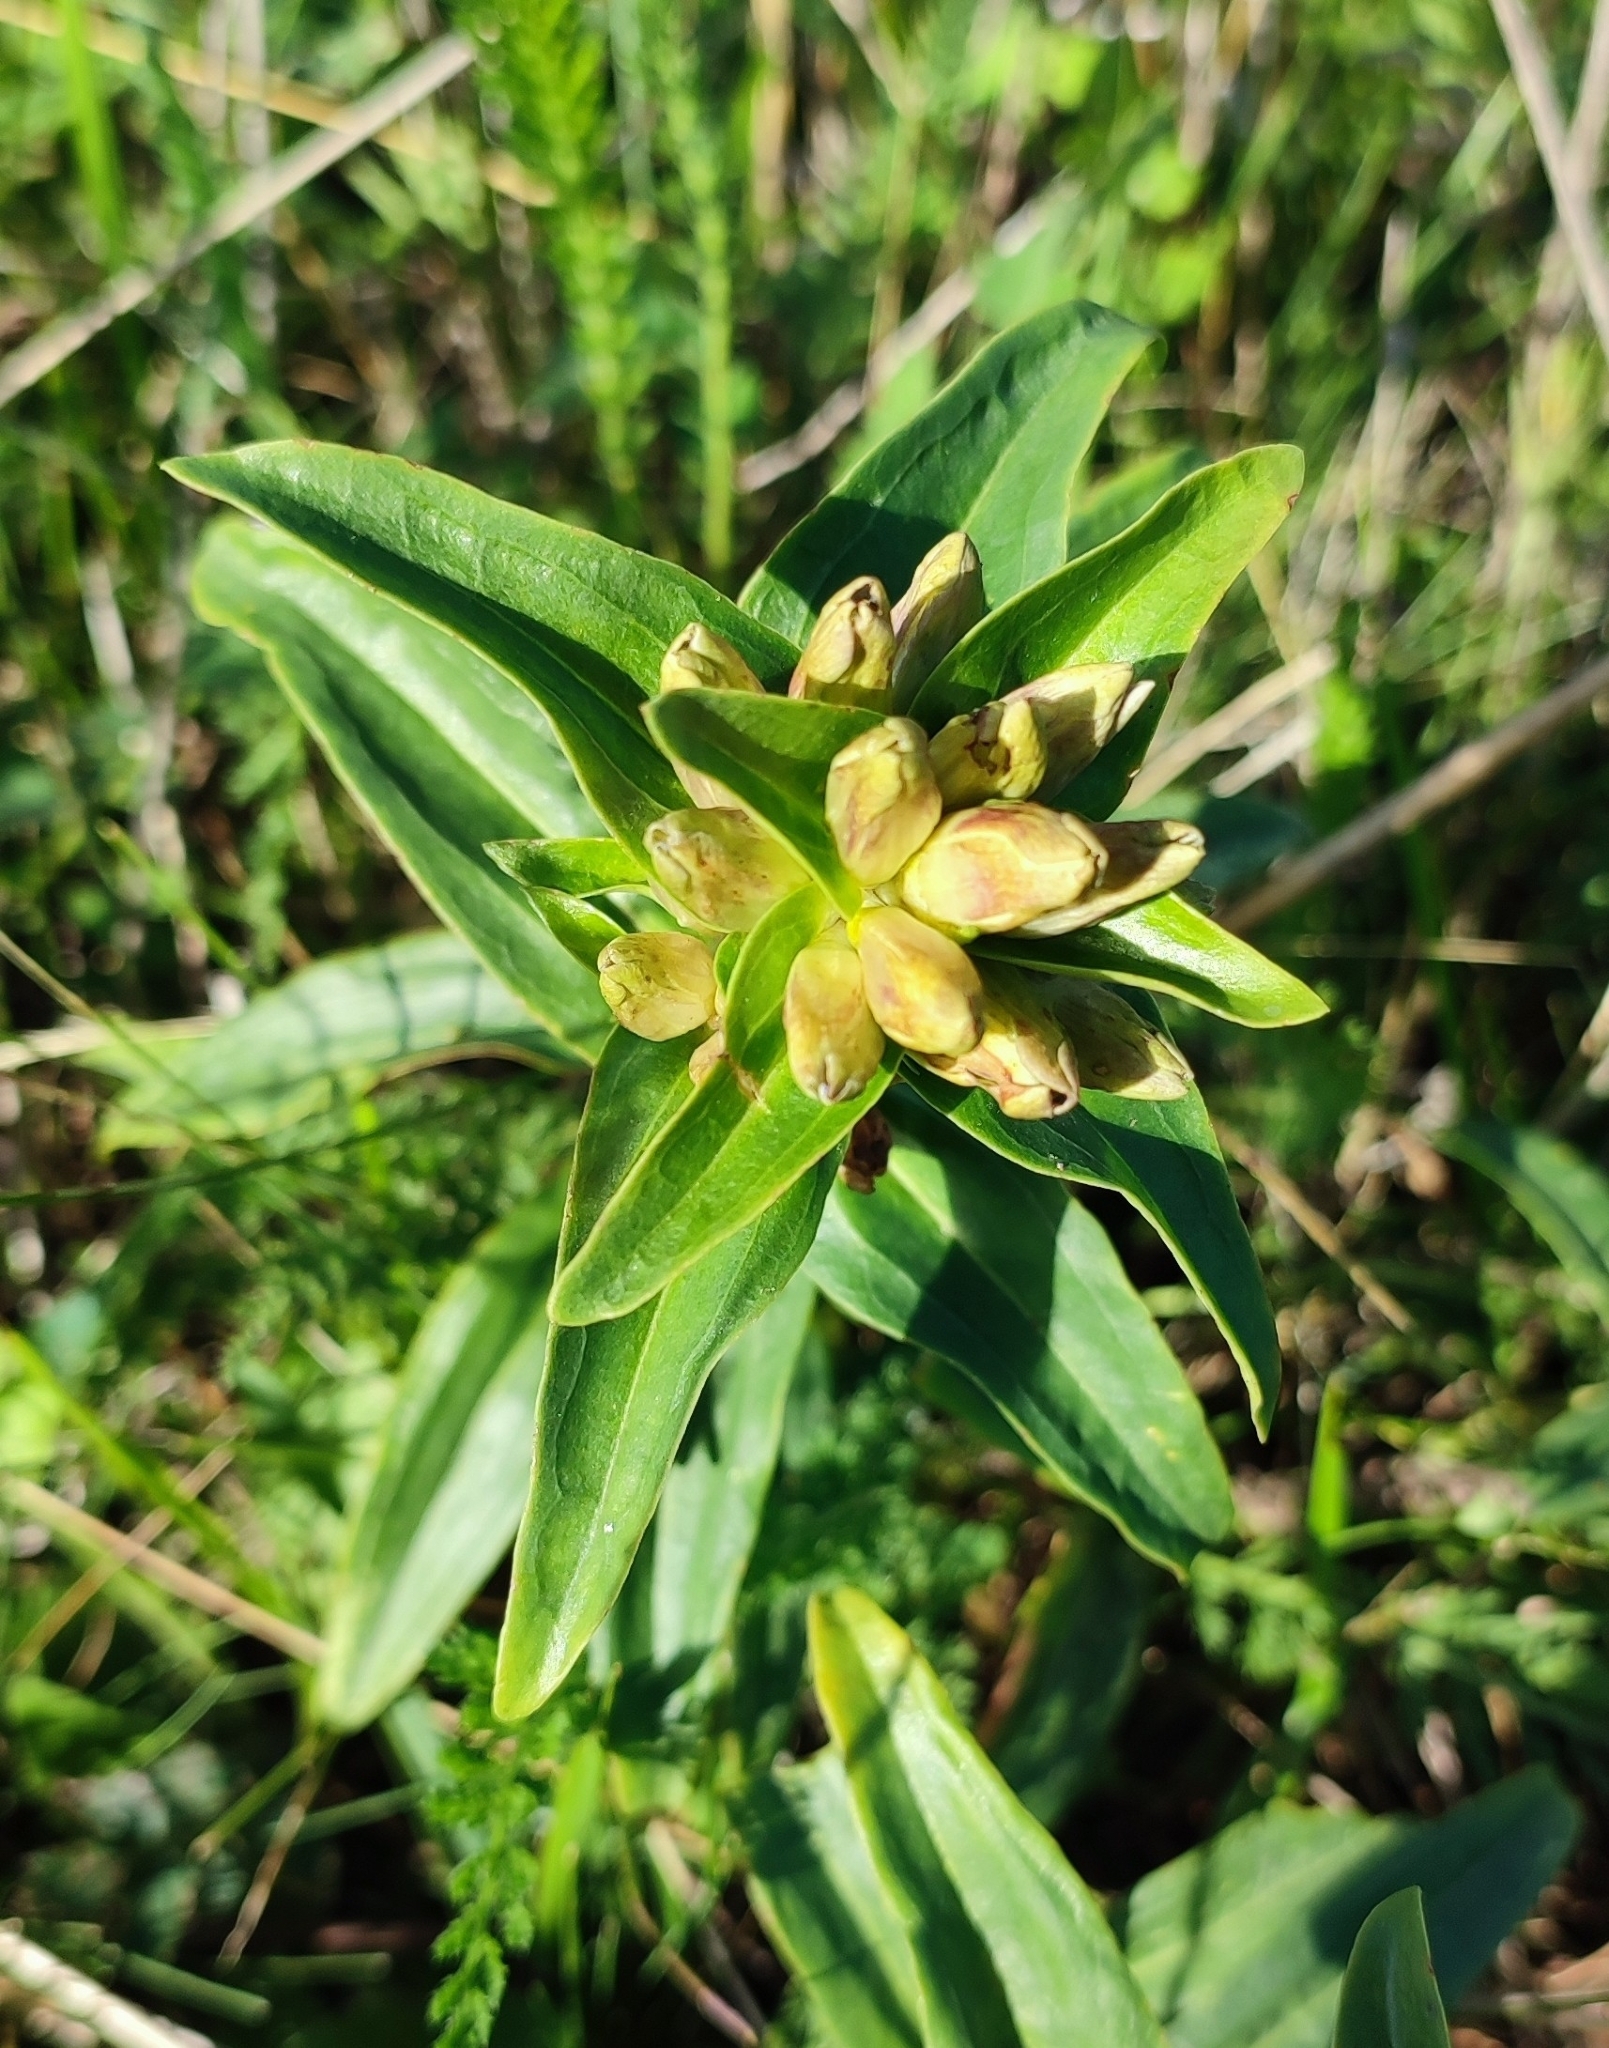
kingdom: Plantae
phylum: Tracheophyta
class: Magnoliopsida
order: Gentianales
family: Gentianaceae
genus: Gentiana
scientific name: Gentiana cruciata
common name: Cross gentian
